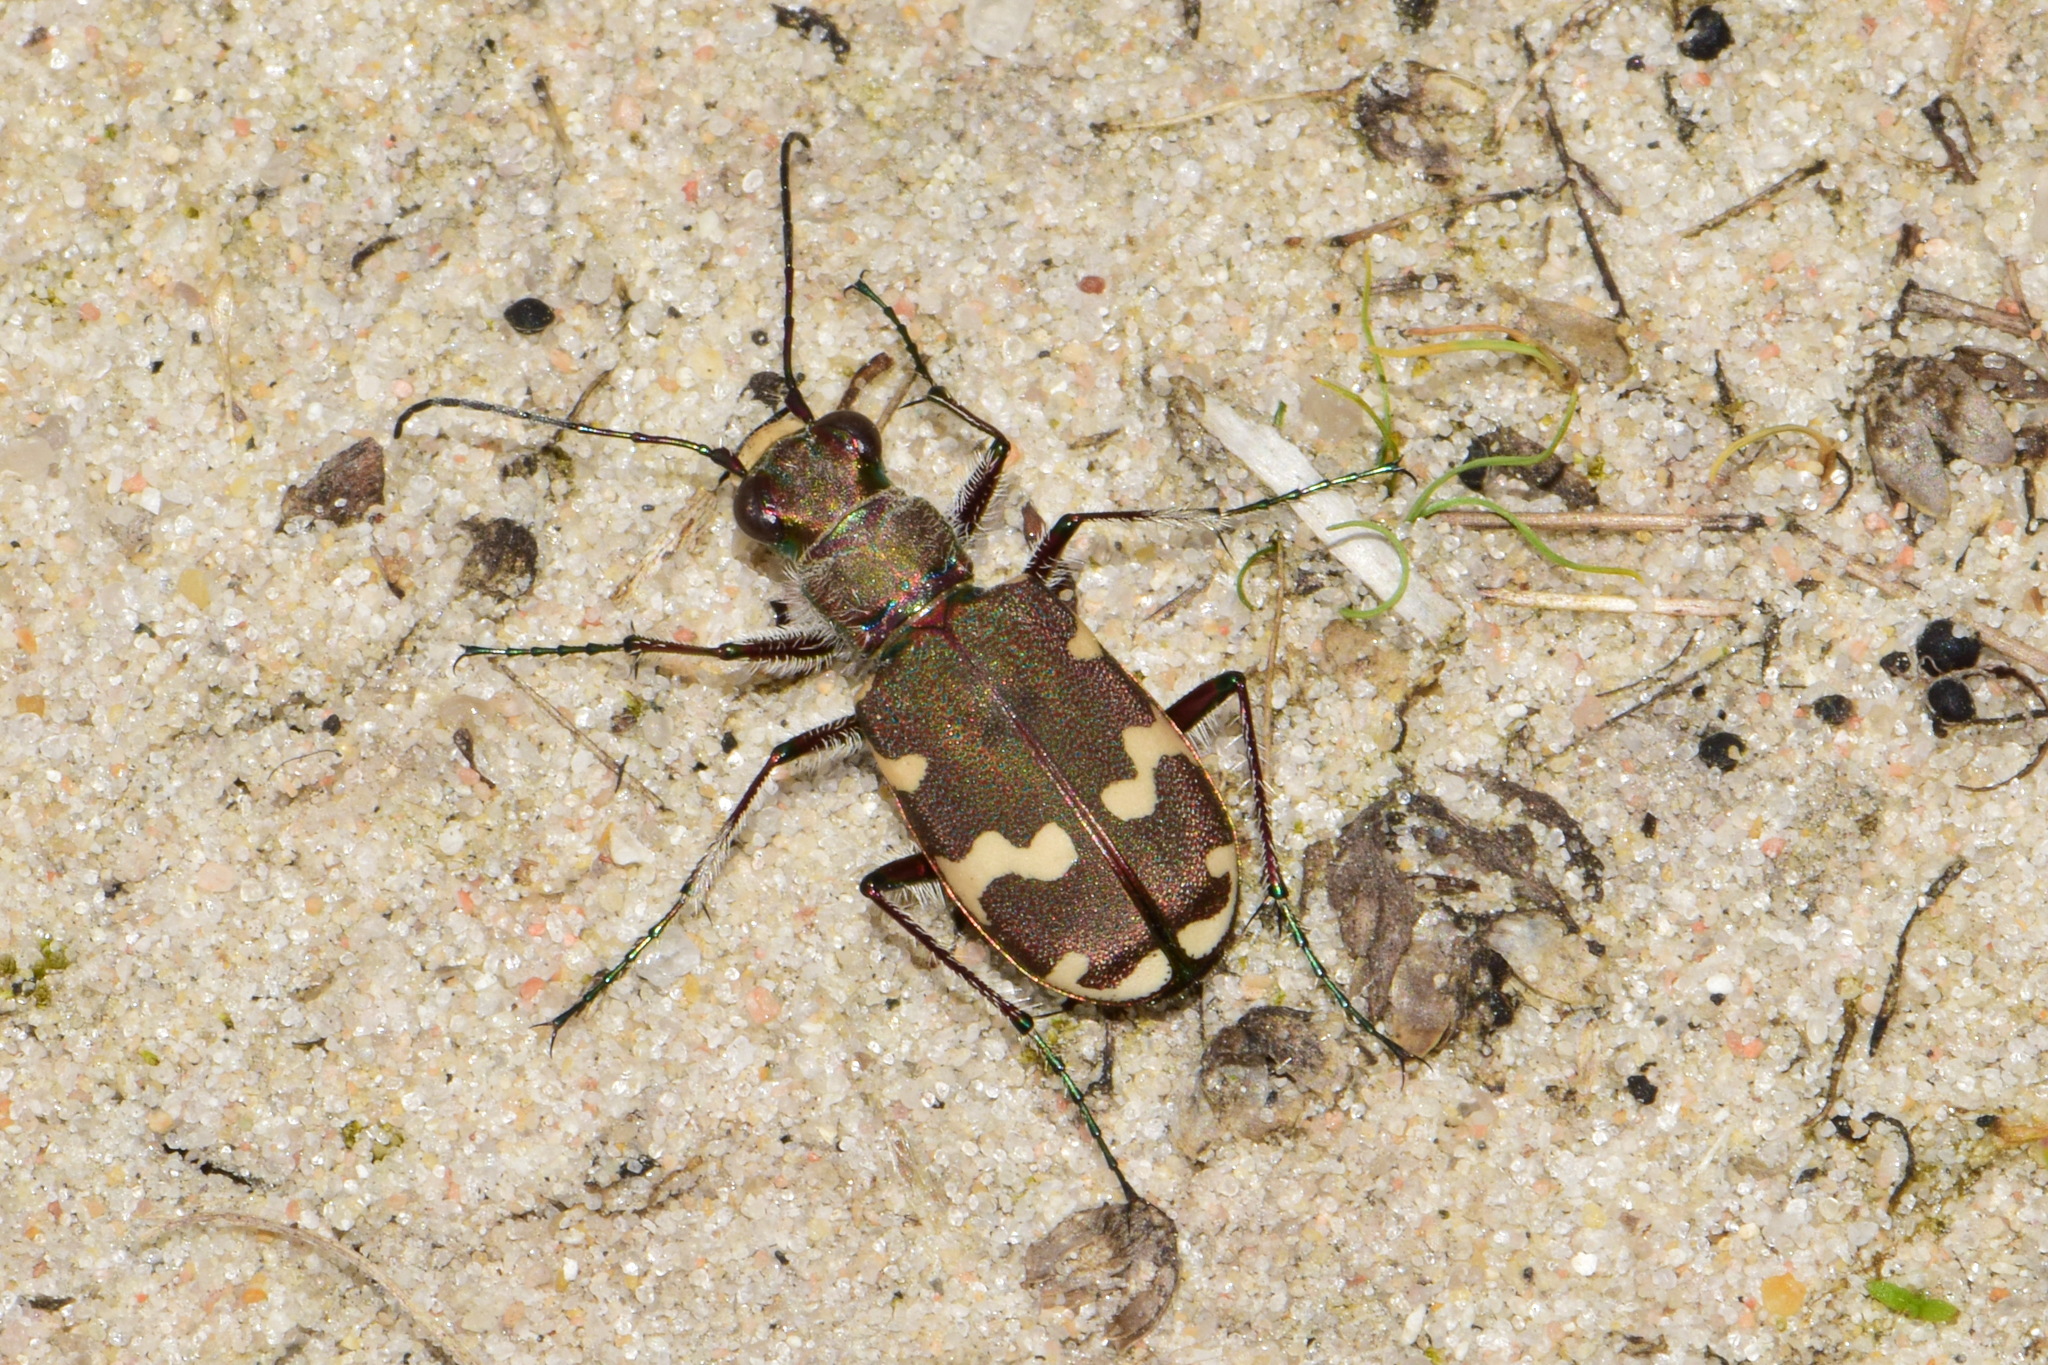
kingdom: Animalia
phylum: Arthropoda
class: Insecta
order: Coleoptera
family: Carabidae
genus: Cicindela
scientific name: Cicindela hybrida
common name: Northern dune tiger beetle
